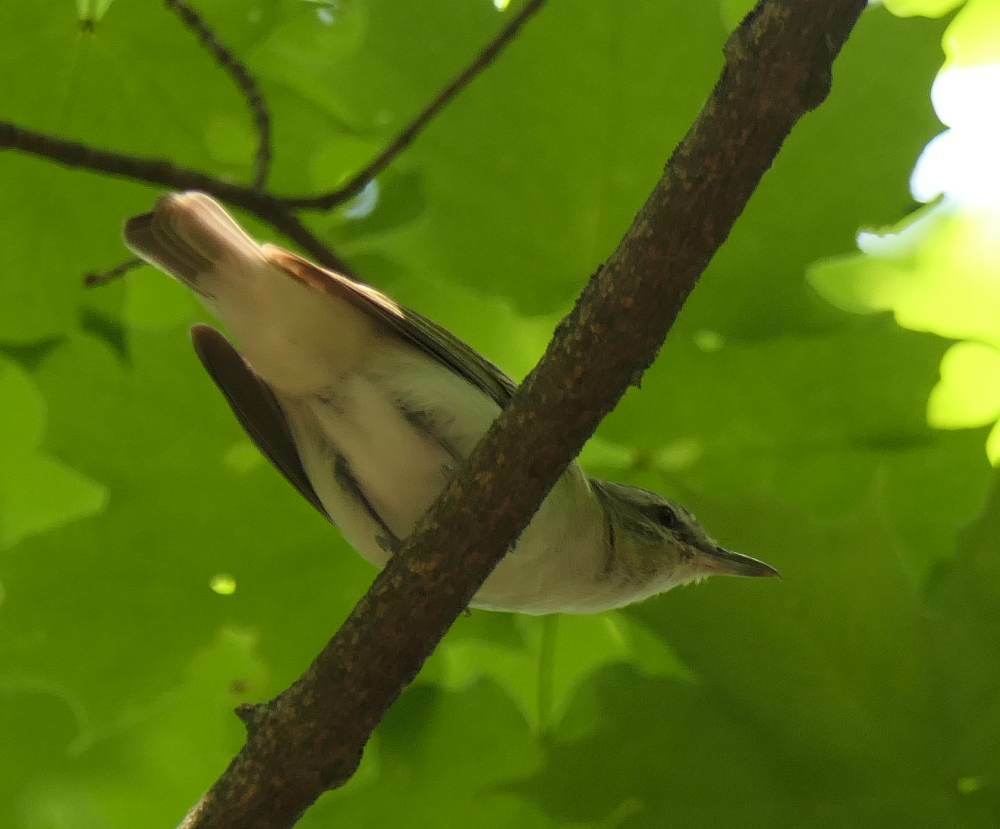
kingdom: Animalia
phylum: Chordata
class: Aves
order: Passeriformes
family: Vireonidae
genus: Vireo
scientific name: Vireo olivaceus
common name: Red-eyed vireo
